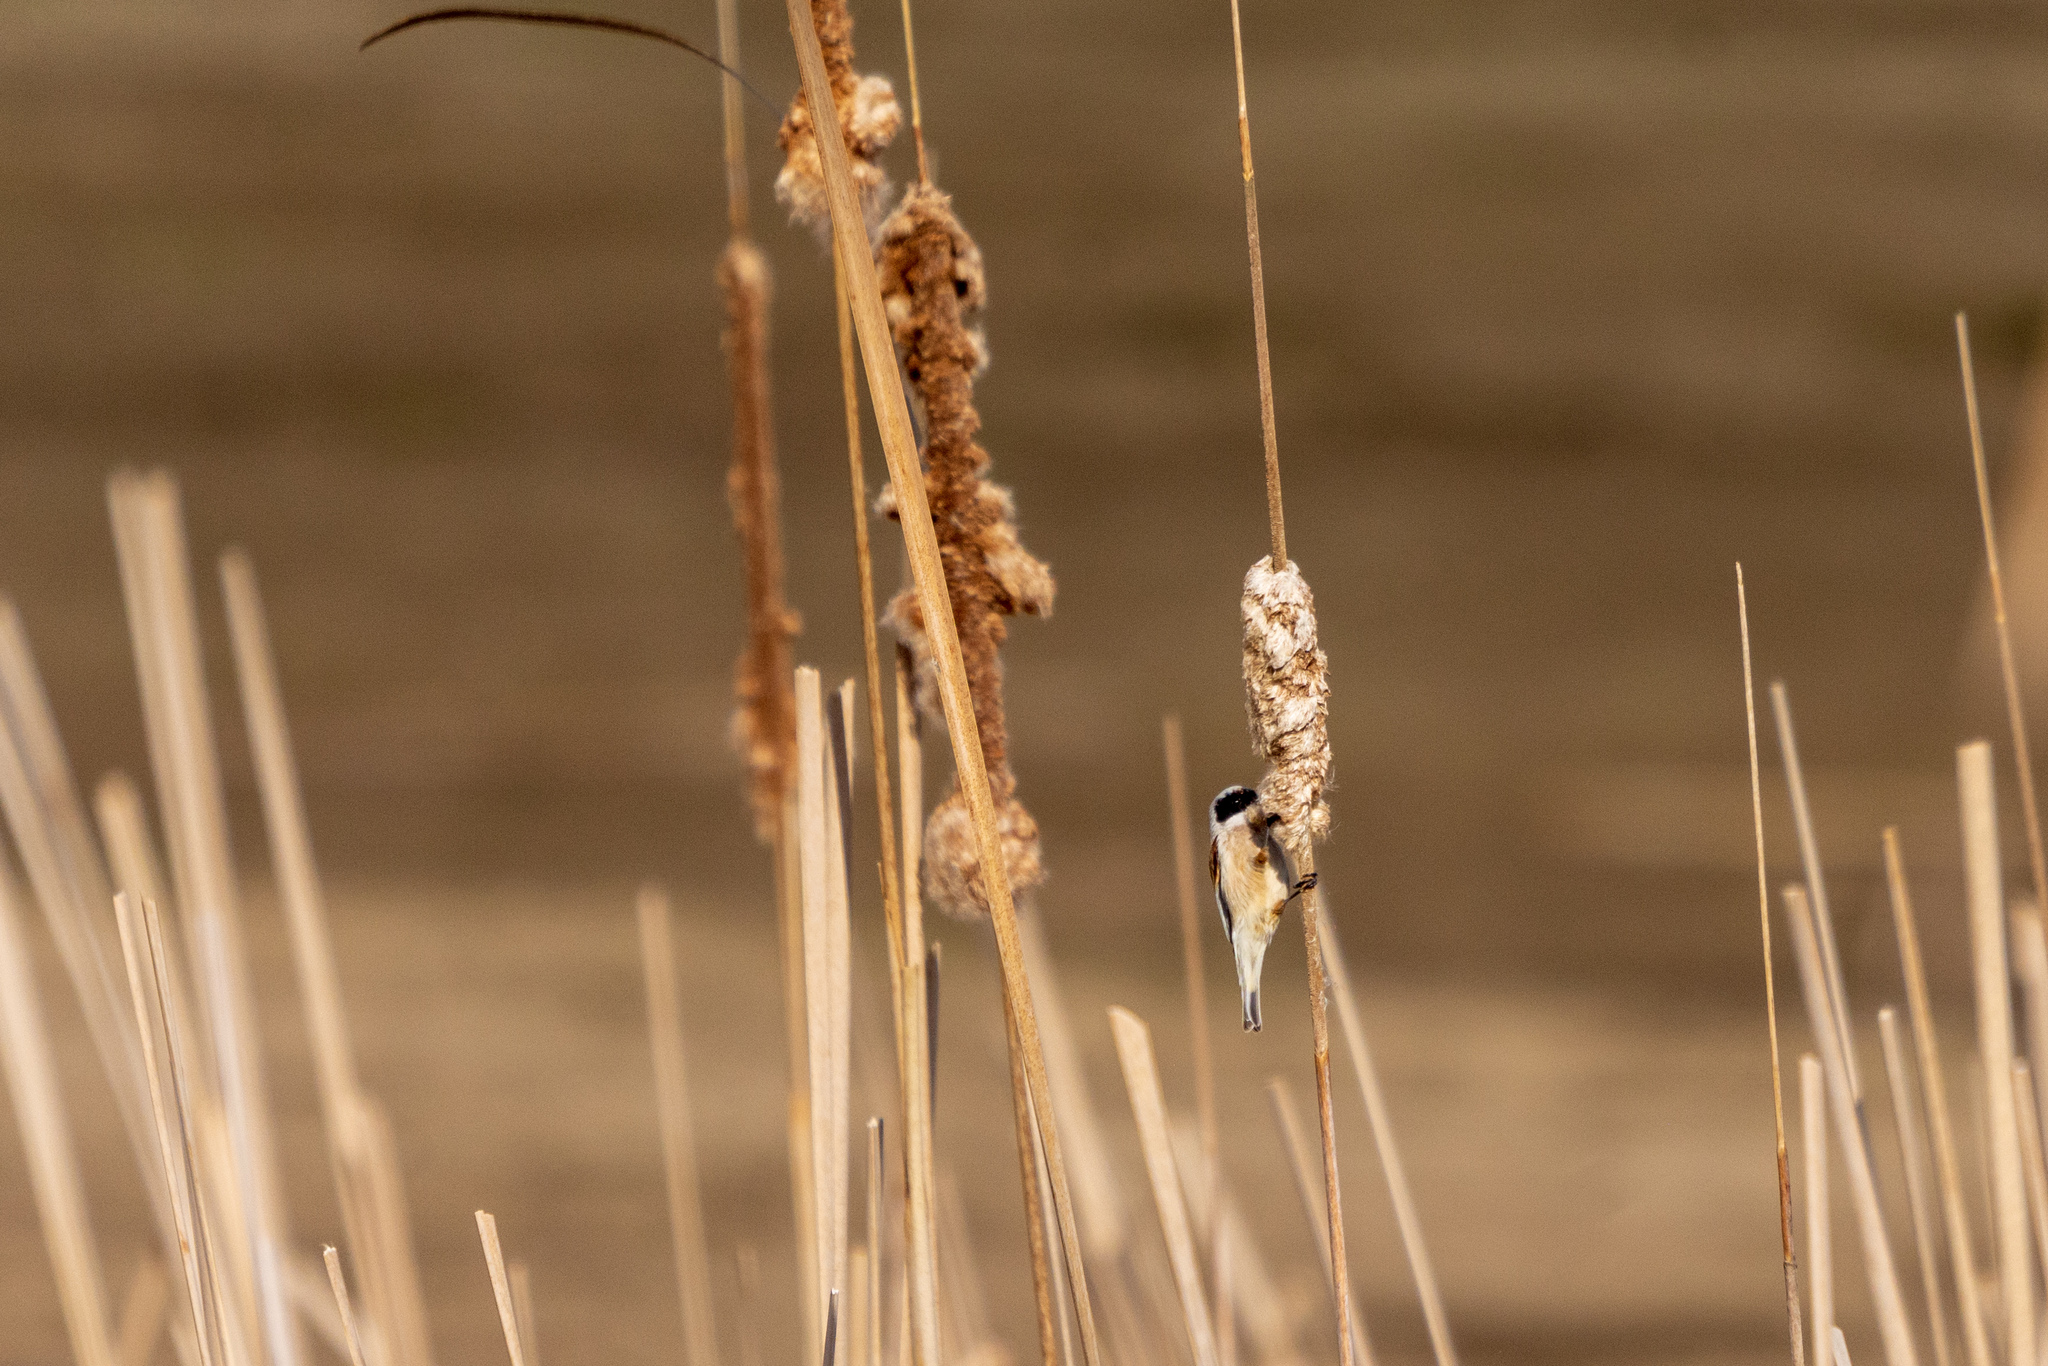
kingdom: Animalia
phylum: Chordata
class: Aves
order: Passeriformes
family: Remizidae
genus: Remiz
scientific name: Remiz pendulinus
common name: Eurasian penduline tit
